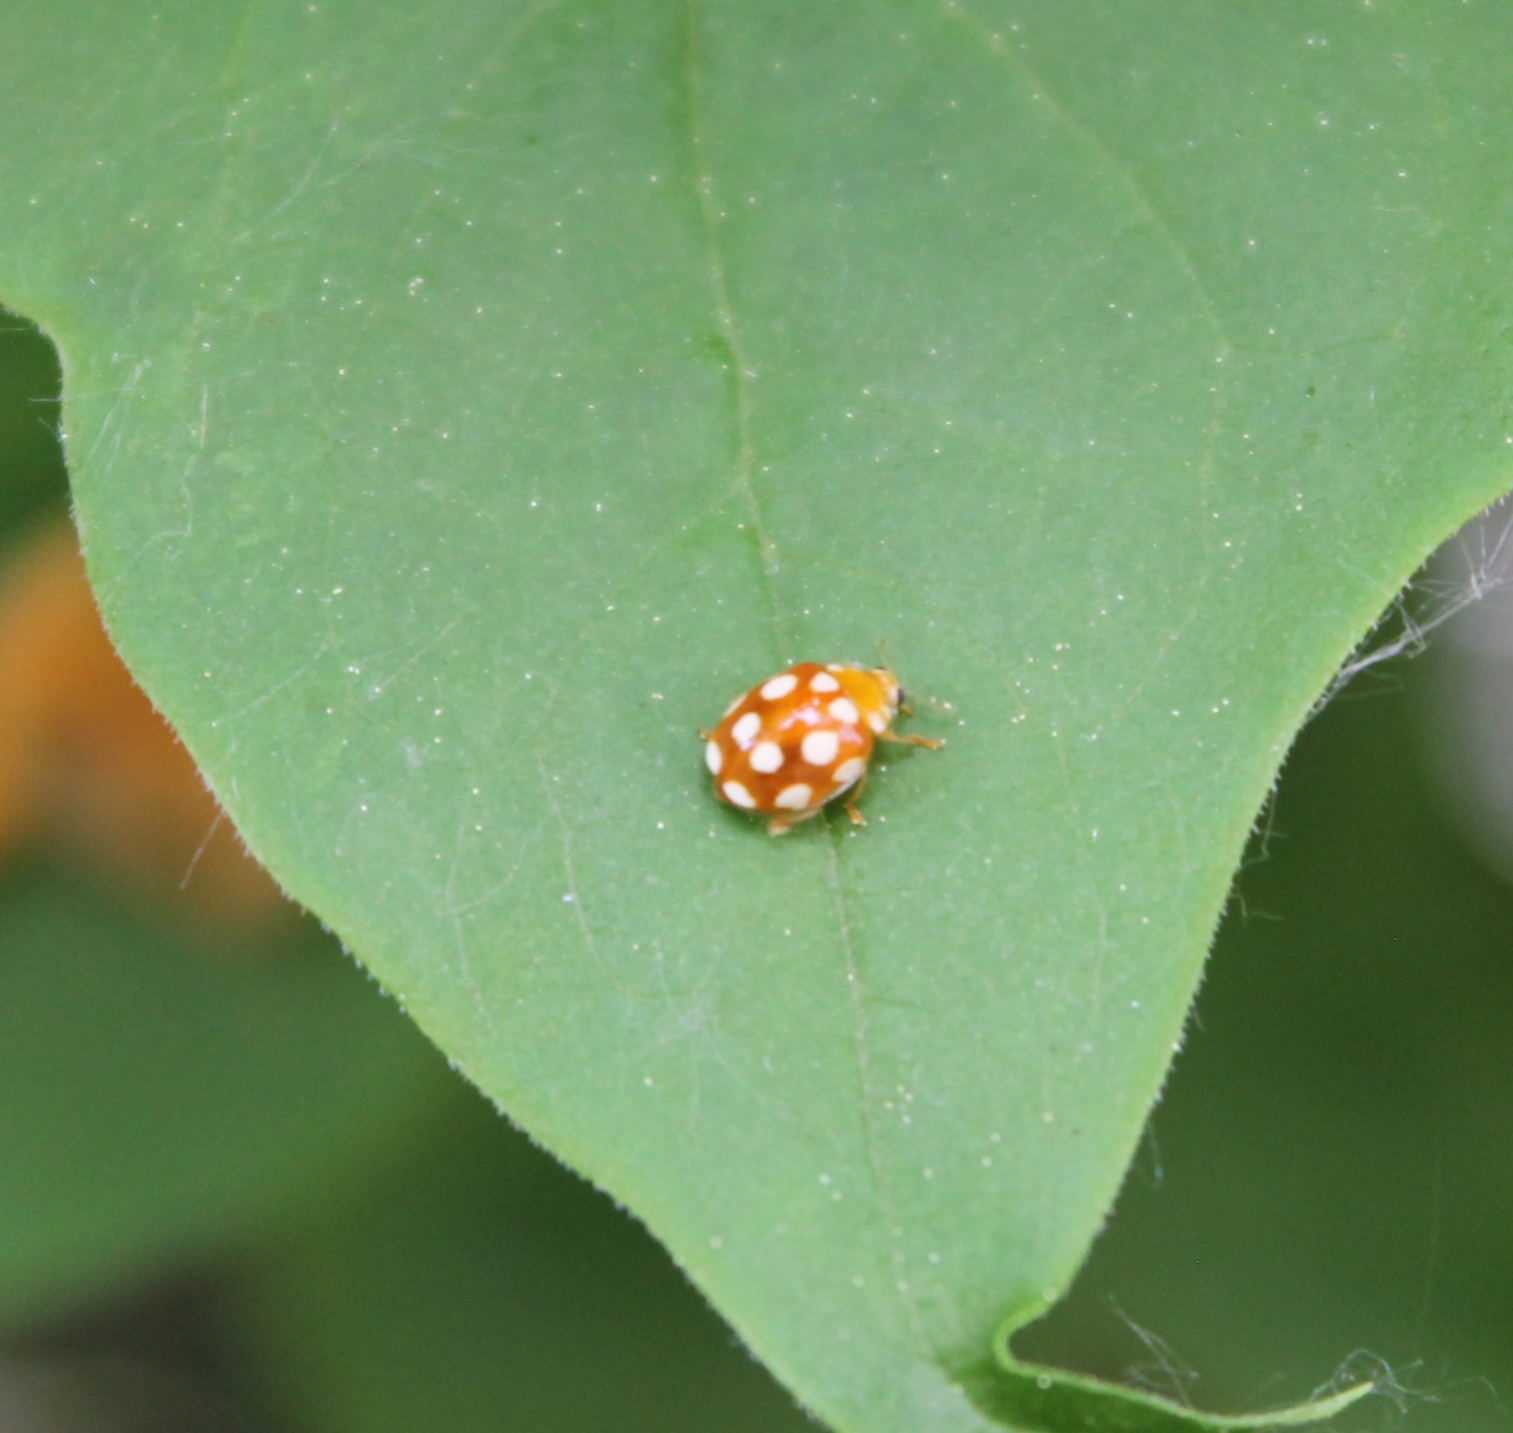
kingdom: Animalia
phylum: Arthropoda
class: Insecta
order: Coleoptera
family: Coccinellidae
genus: Vibidia
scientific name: Vibidia duodecimguttata
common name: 12-spot ladybird
